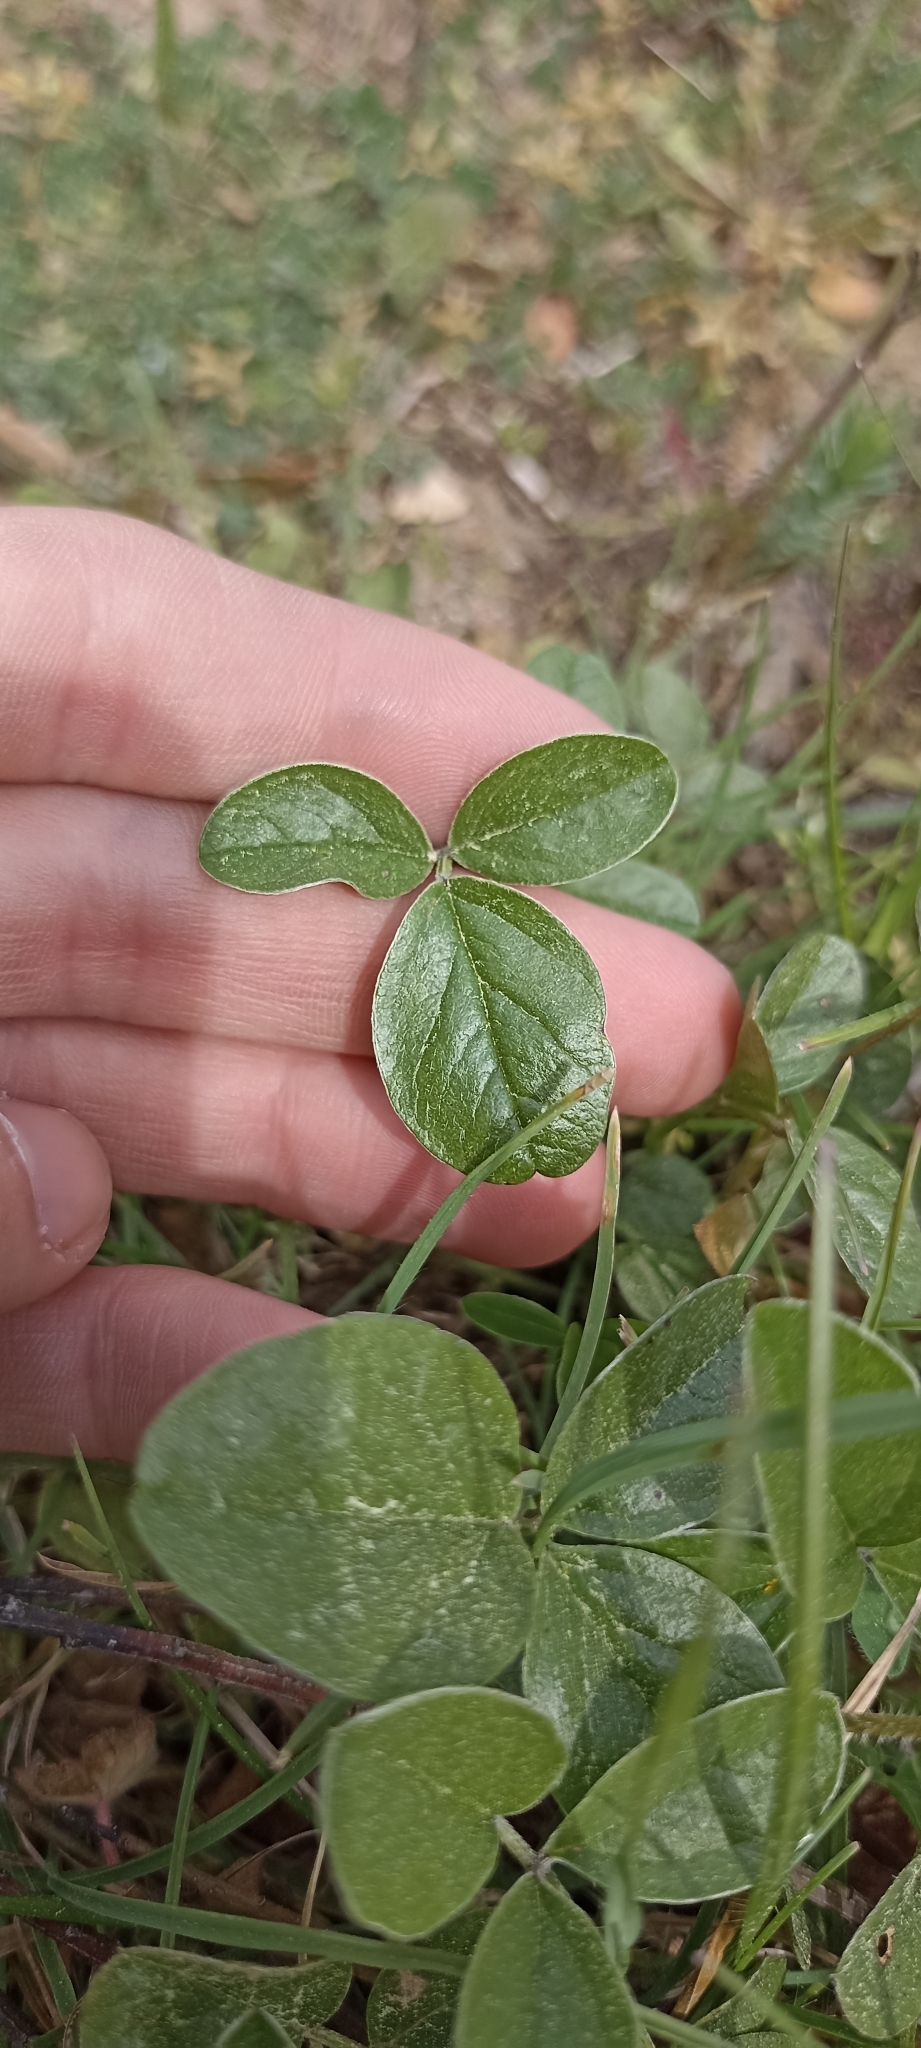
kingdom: Plantae
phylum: Tracheophyta
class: Magnoliopsida
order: Fabales
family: Fabaceae
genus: Bituminaria
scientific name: Bituminaria bituminosa
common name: Arabian pea
